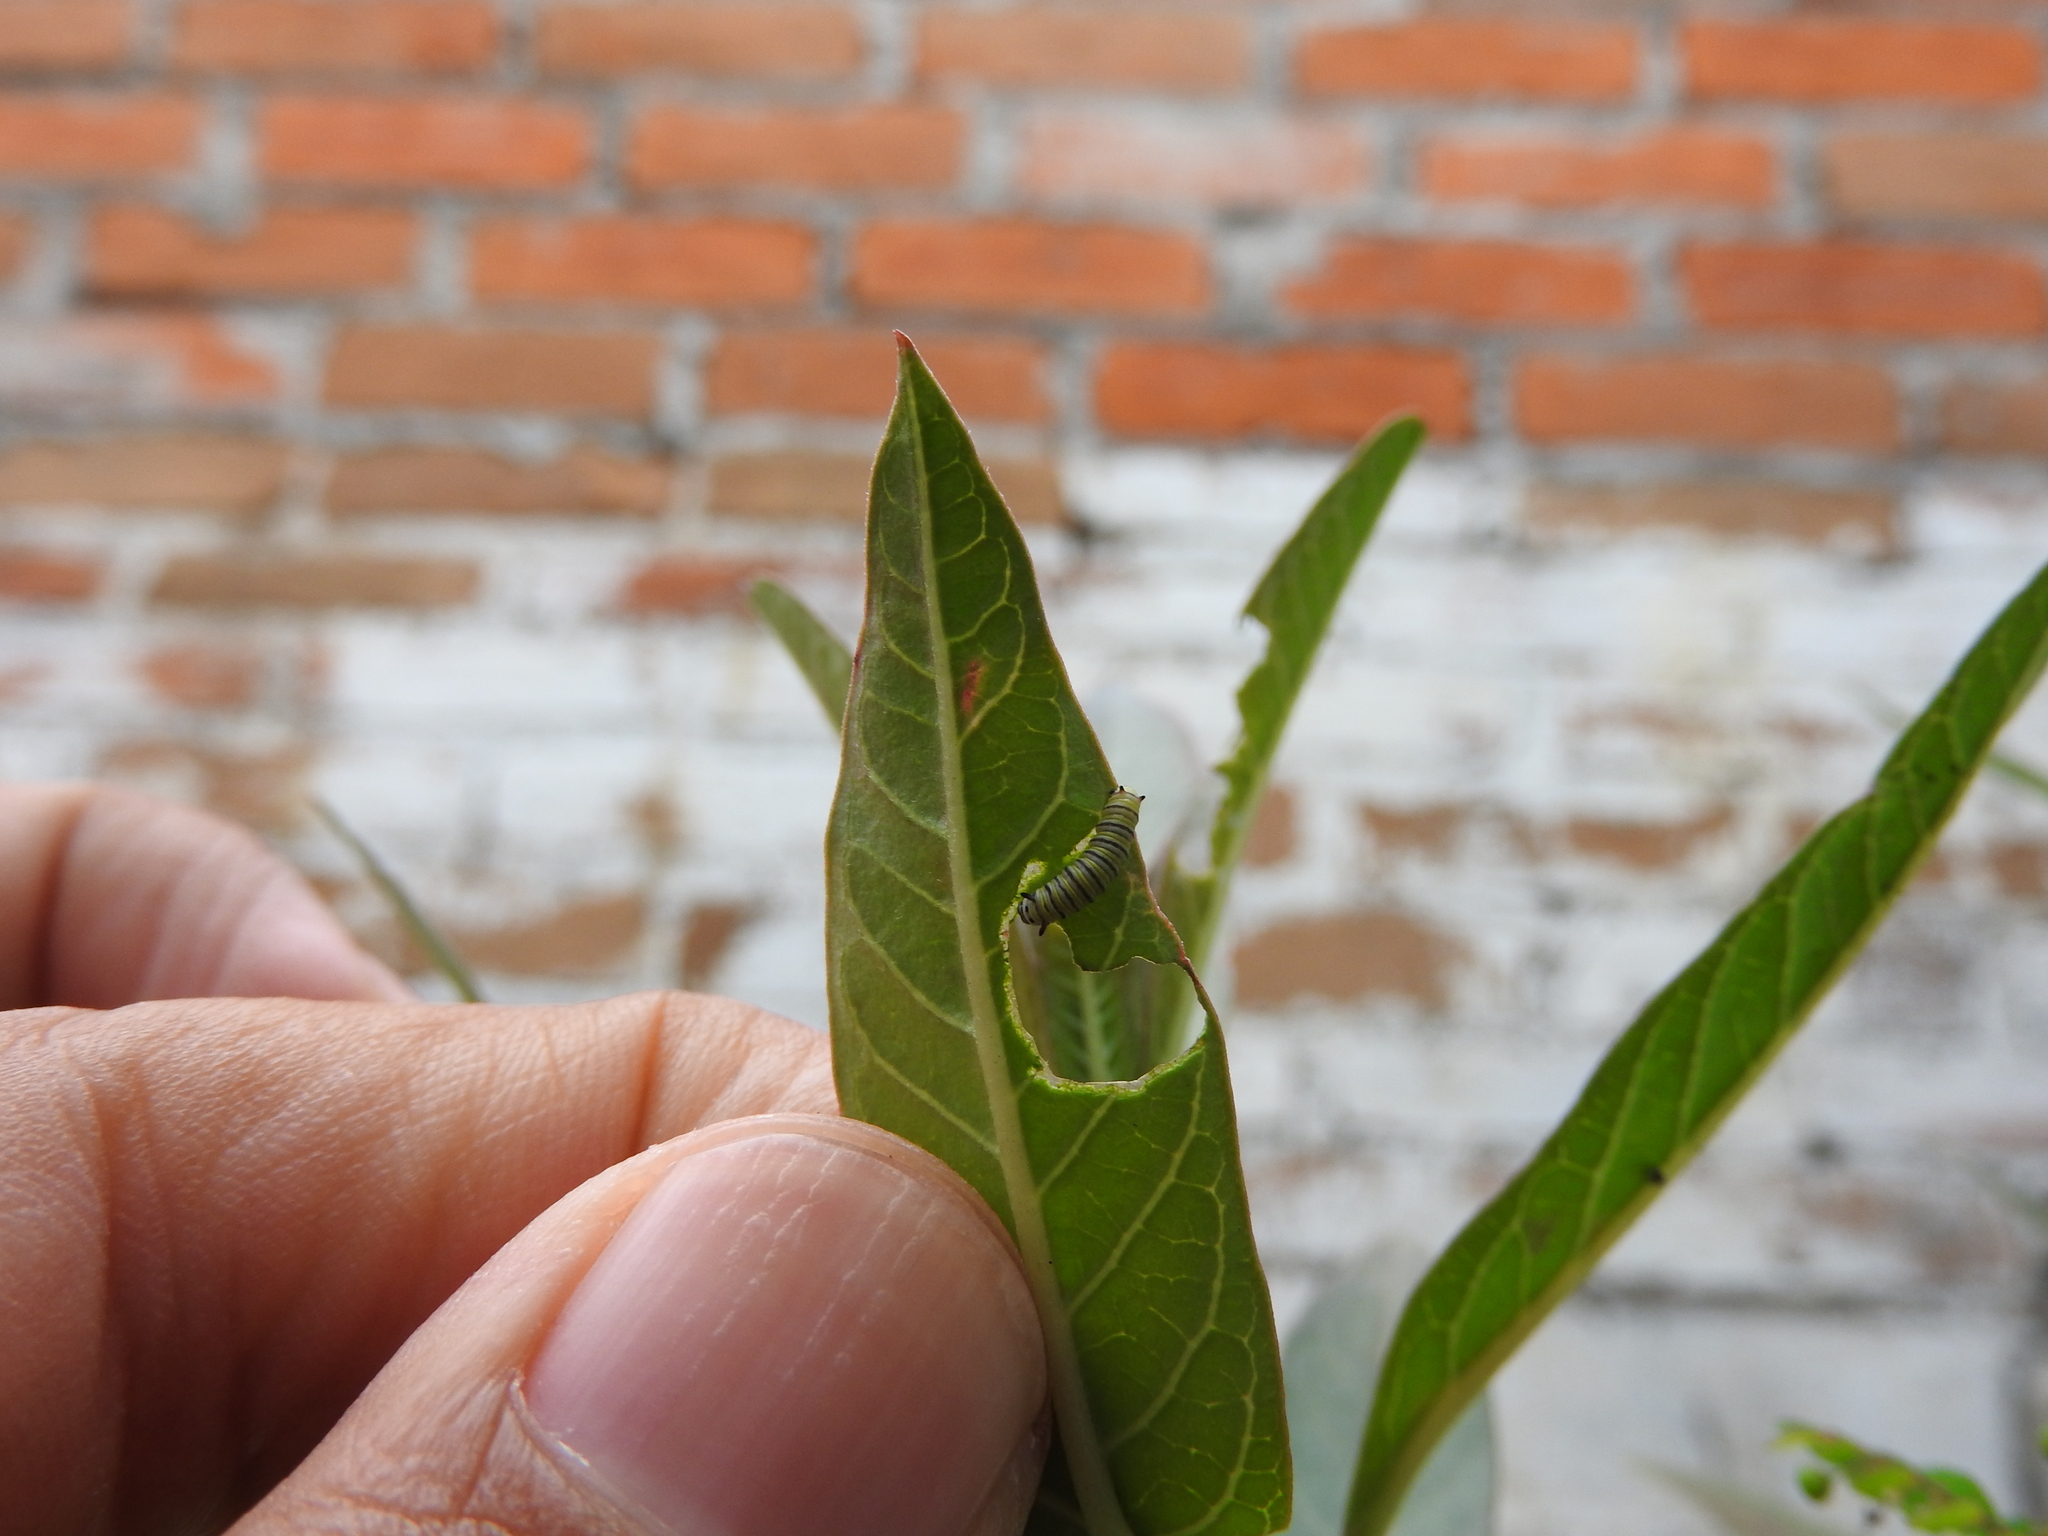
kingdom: Animalia
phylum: Arthropoda
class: Insecta
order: Lepidoptera
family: Nymphalidae
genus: Danaus
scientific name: Danaus plexippus
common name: Monarch
